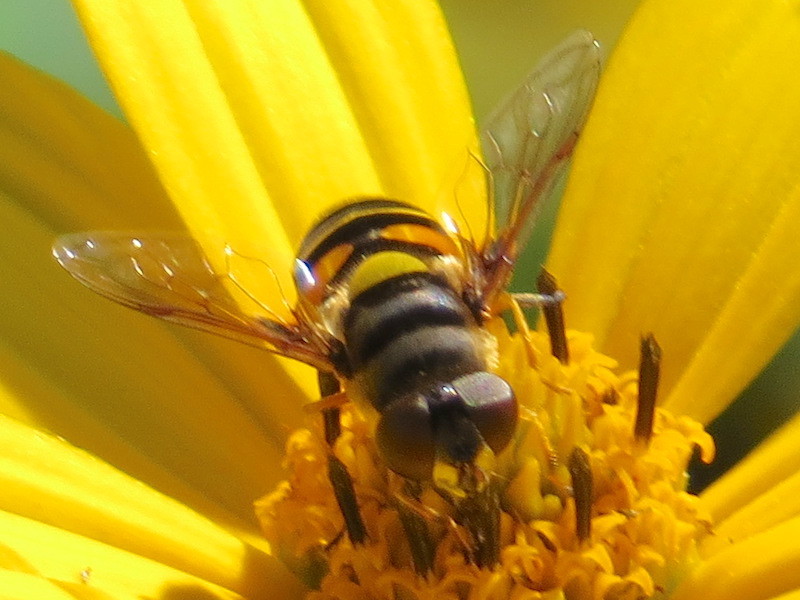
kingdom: Animalia
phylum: Arthropoda
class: Insecta
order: Diptera
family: Syrphidae
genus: Eristalis
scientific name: Eristalis transversa
